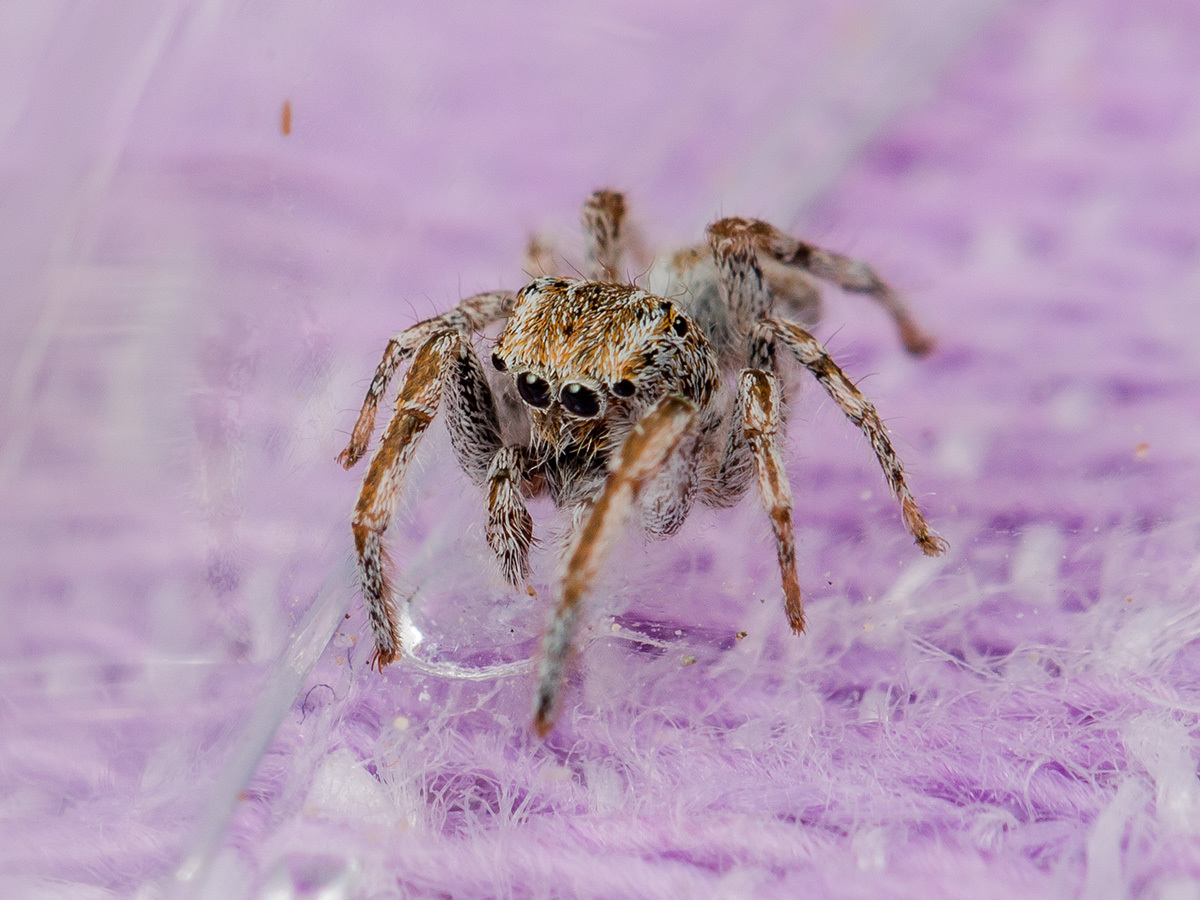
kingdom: Animalia
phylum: Arthropoda
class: Arachnida
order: Araneae
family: Salticidae
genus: Marusyllus
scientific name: Marusyllus uzbekistanicus
